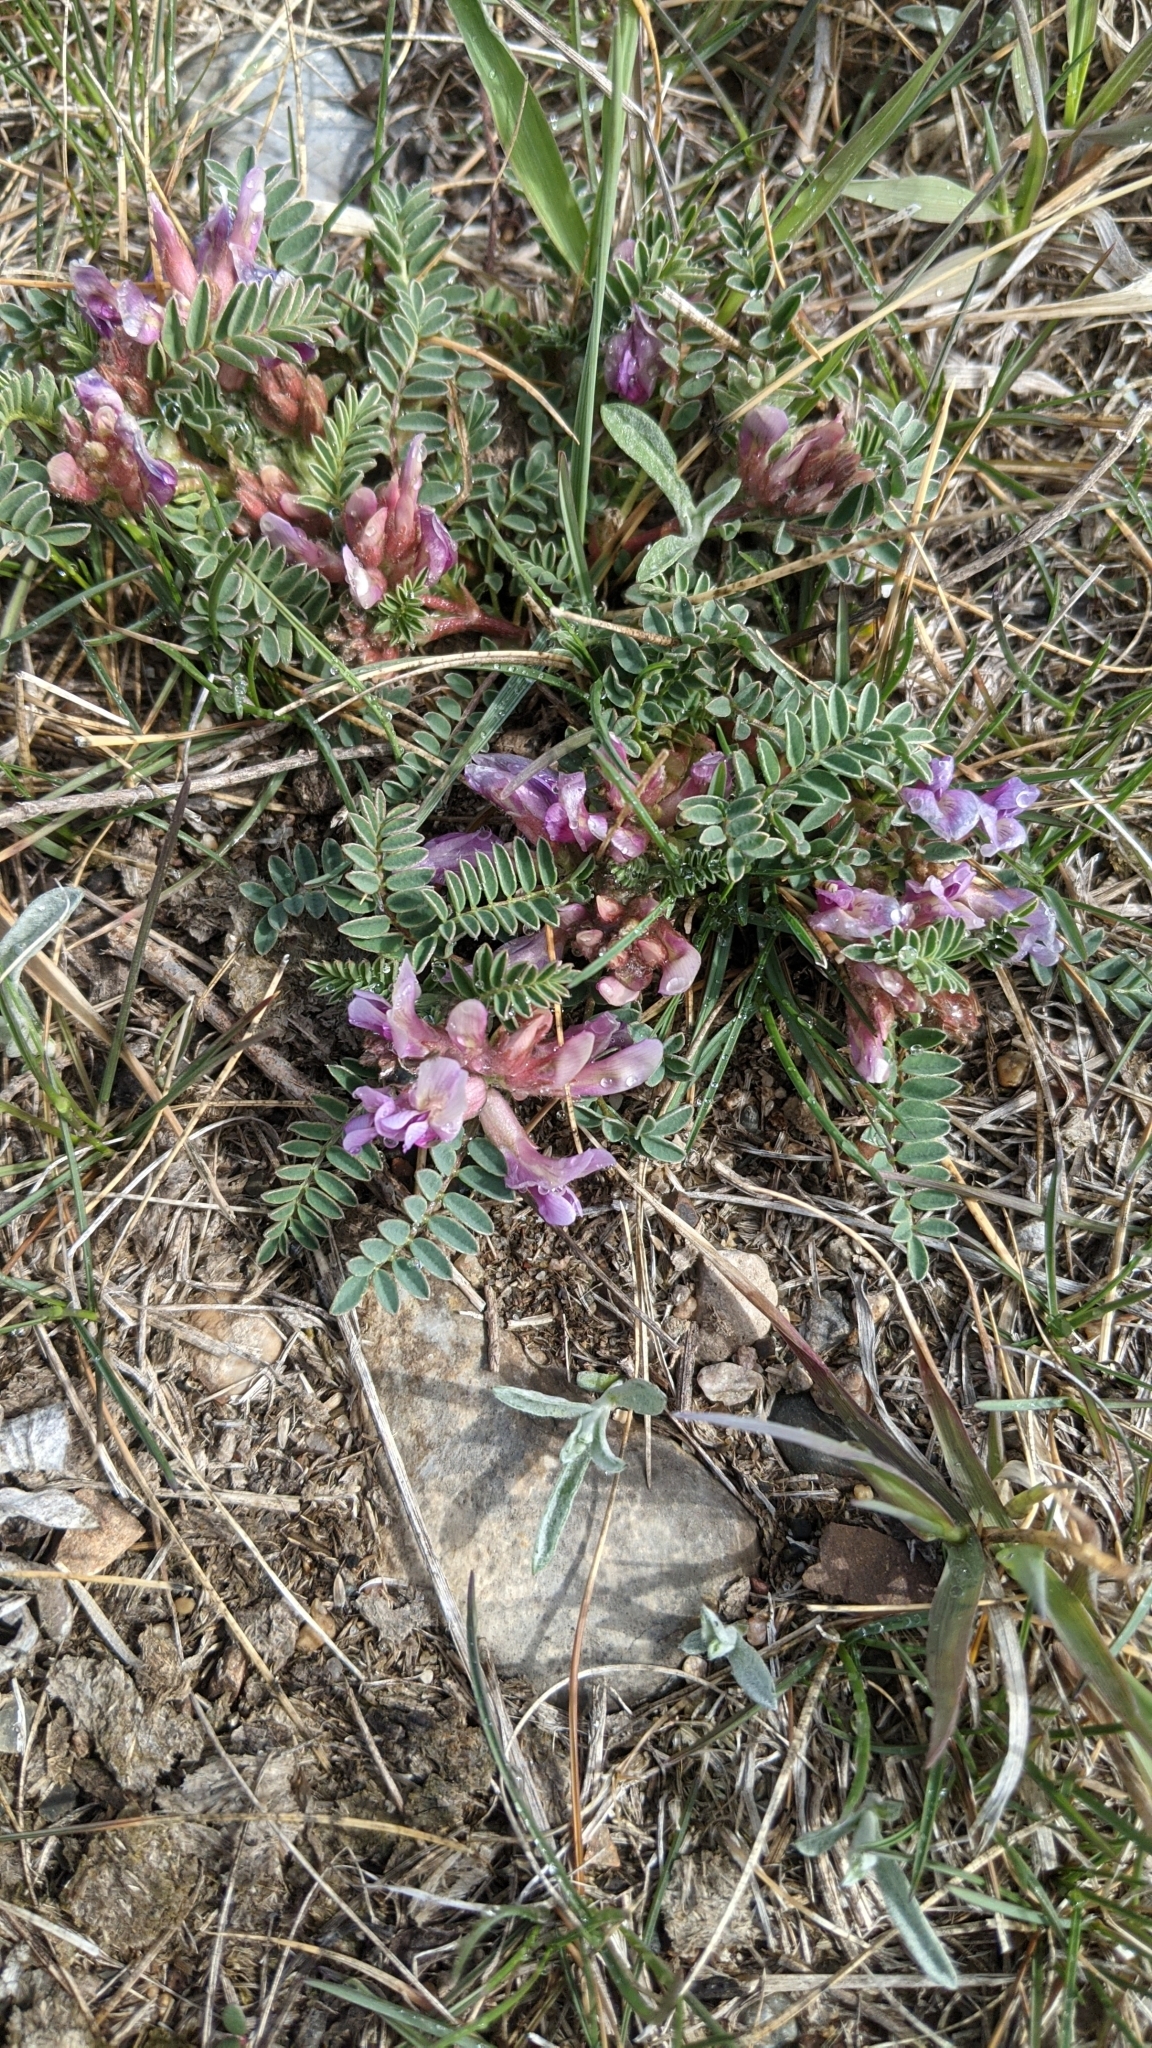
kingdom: Plantae
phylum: Tracheophyta
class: Magnoliopsida
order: Fabales
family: Fabaceae
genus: Astragalus
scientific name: Astragalus crassicarpus
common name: Ground-plum milk-vetch
